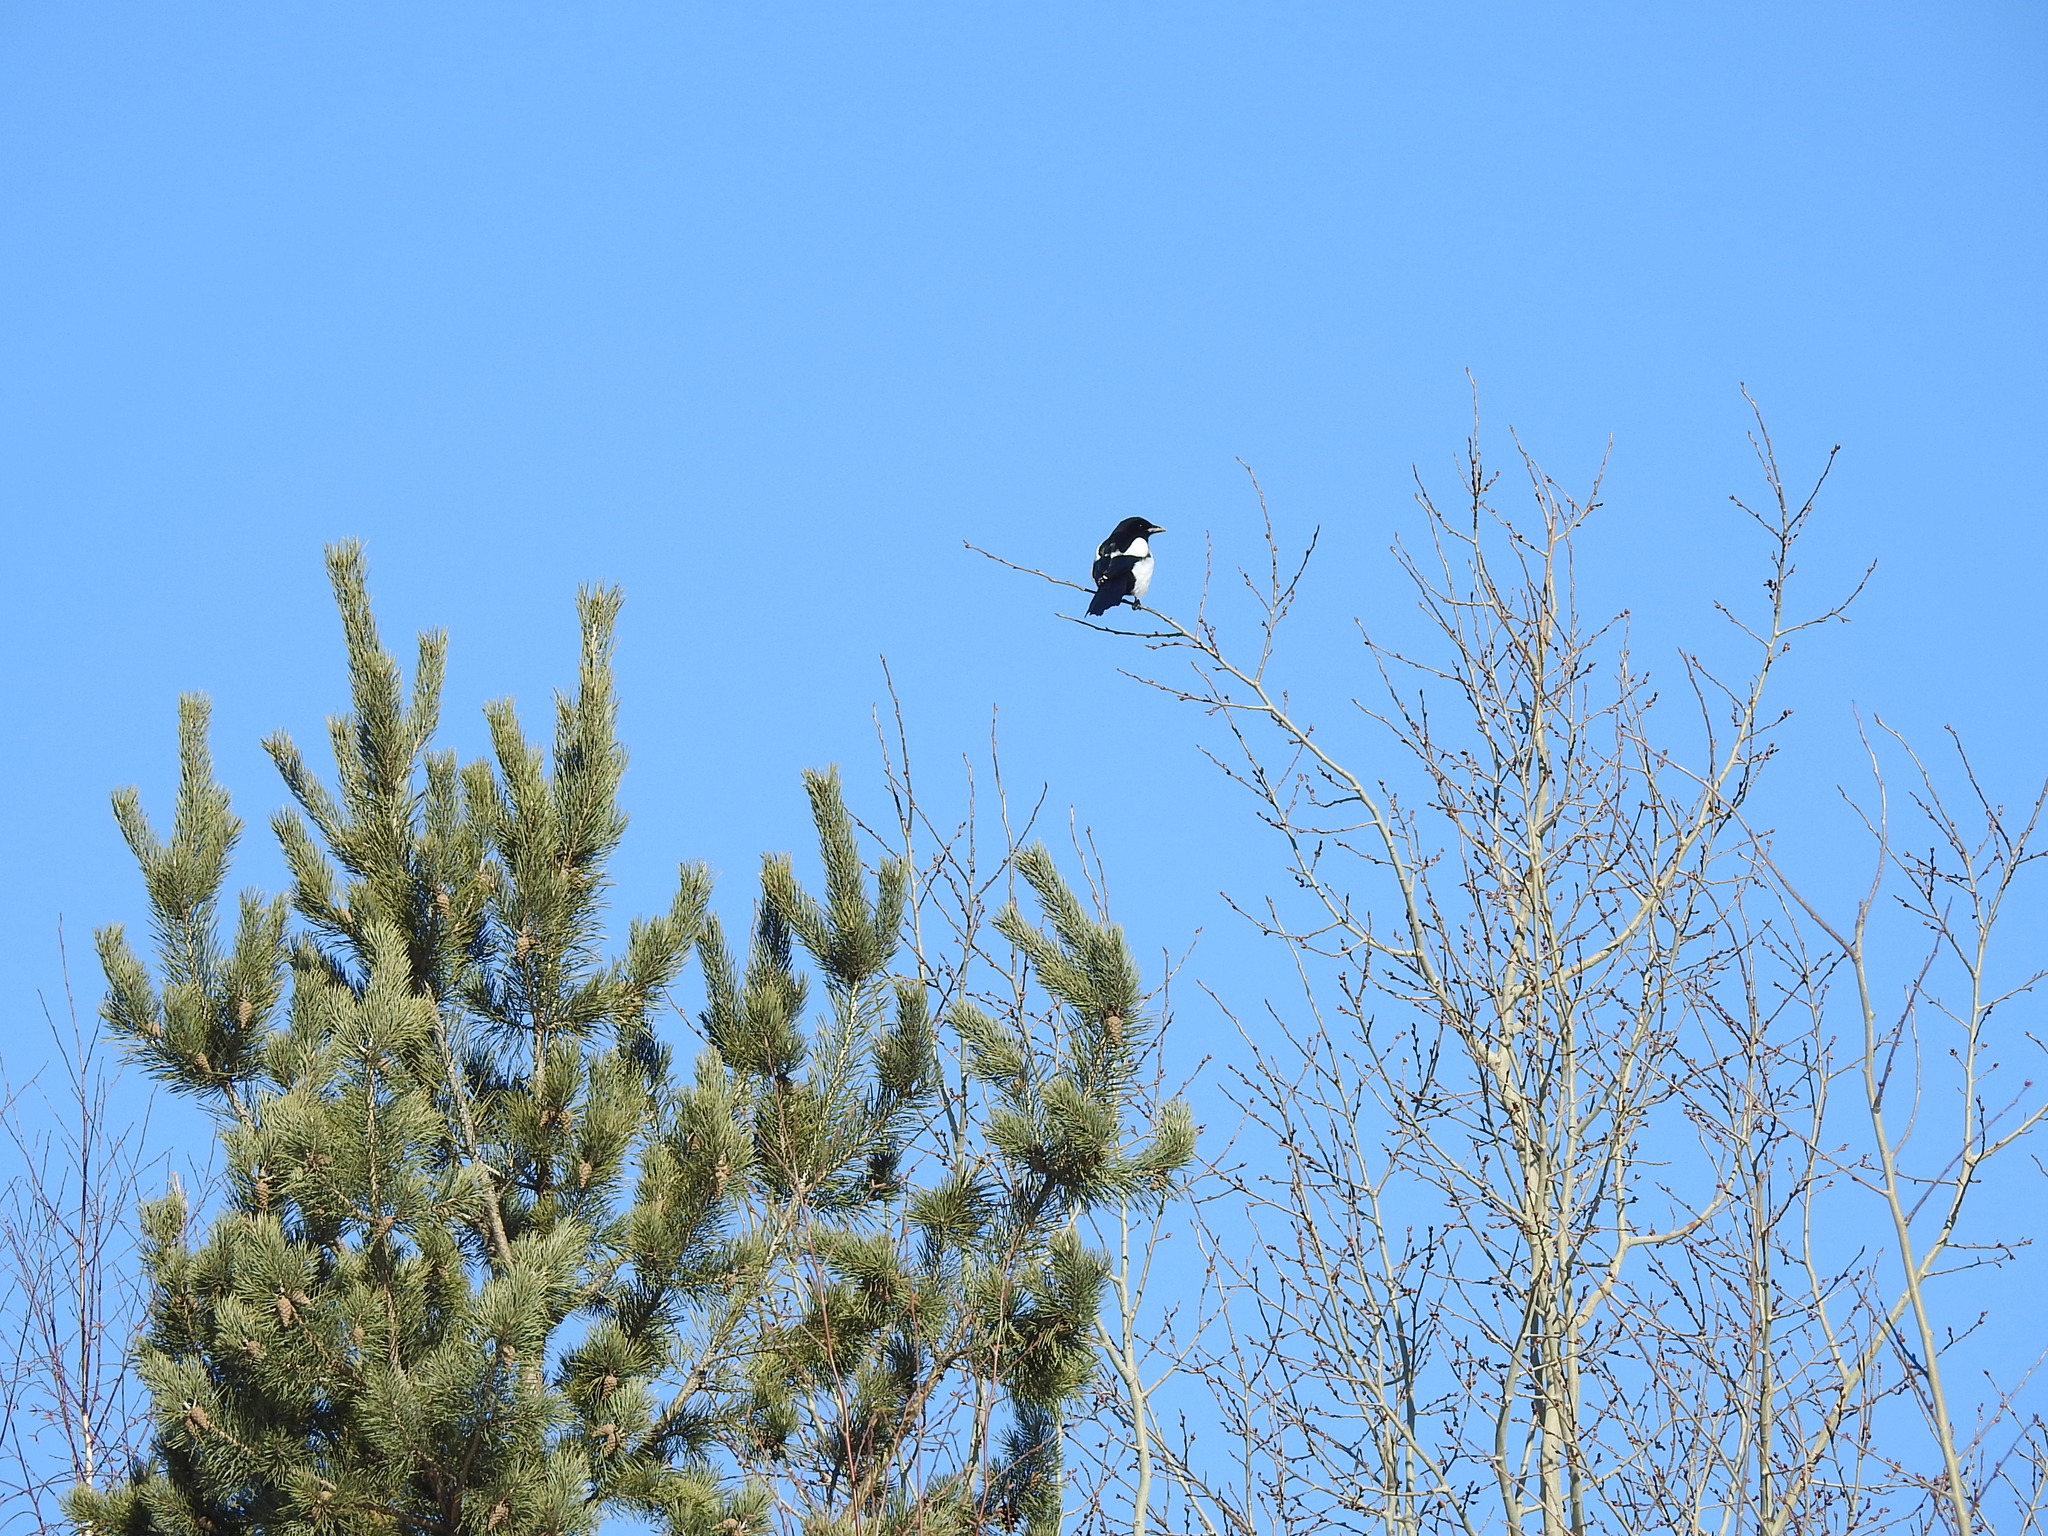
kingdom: Animalia
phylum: Chordata
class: Aves
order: Passeriformes
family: Corvidae
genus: Pica
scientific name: Pica pica
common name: Eurasian magpie
